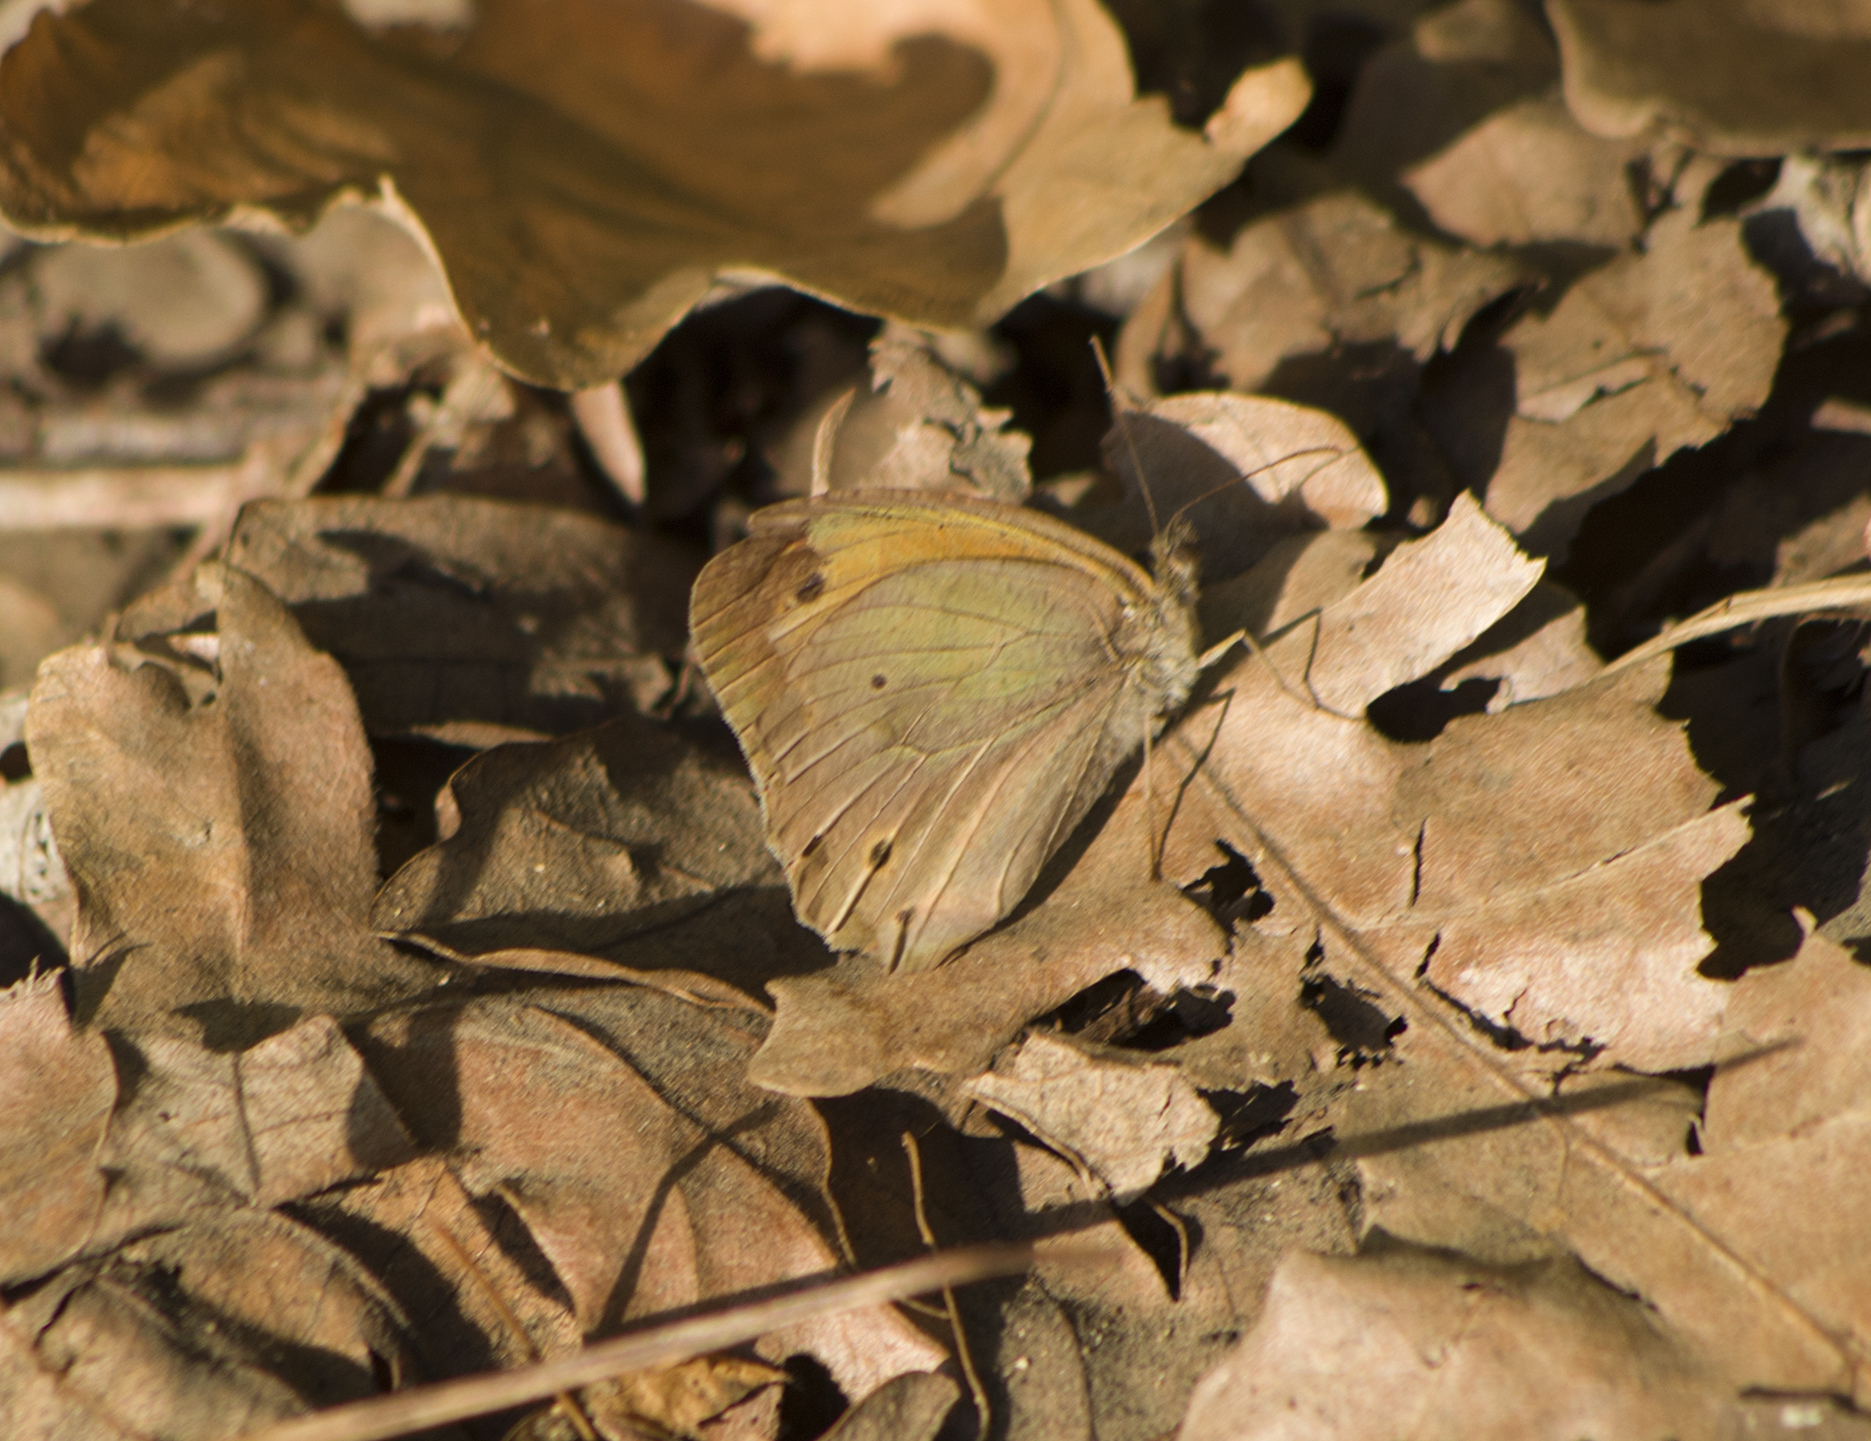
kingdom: Animalia
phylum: Arthropoda
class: Insecta
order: Lepidoptera
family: Nymphalidae
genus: Maniola
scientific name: Maniola jurtina
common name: Meadow brown
